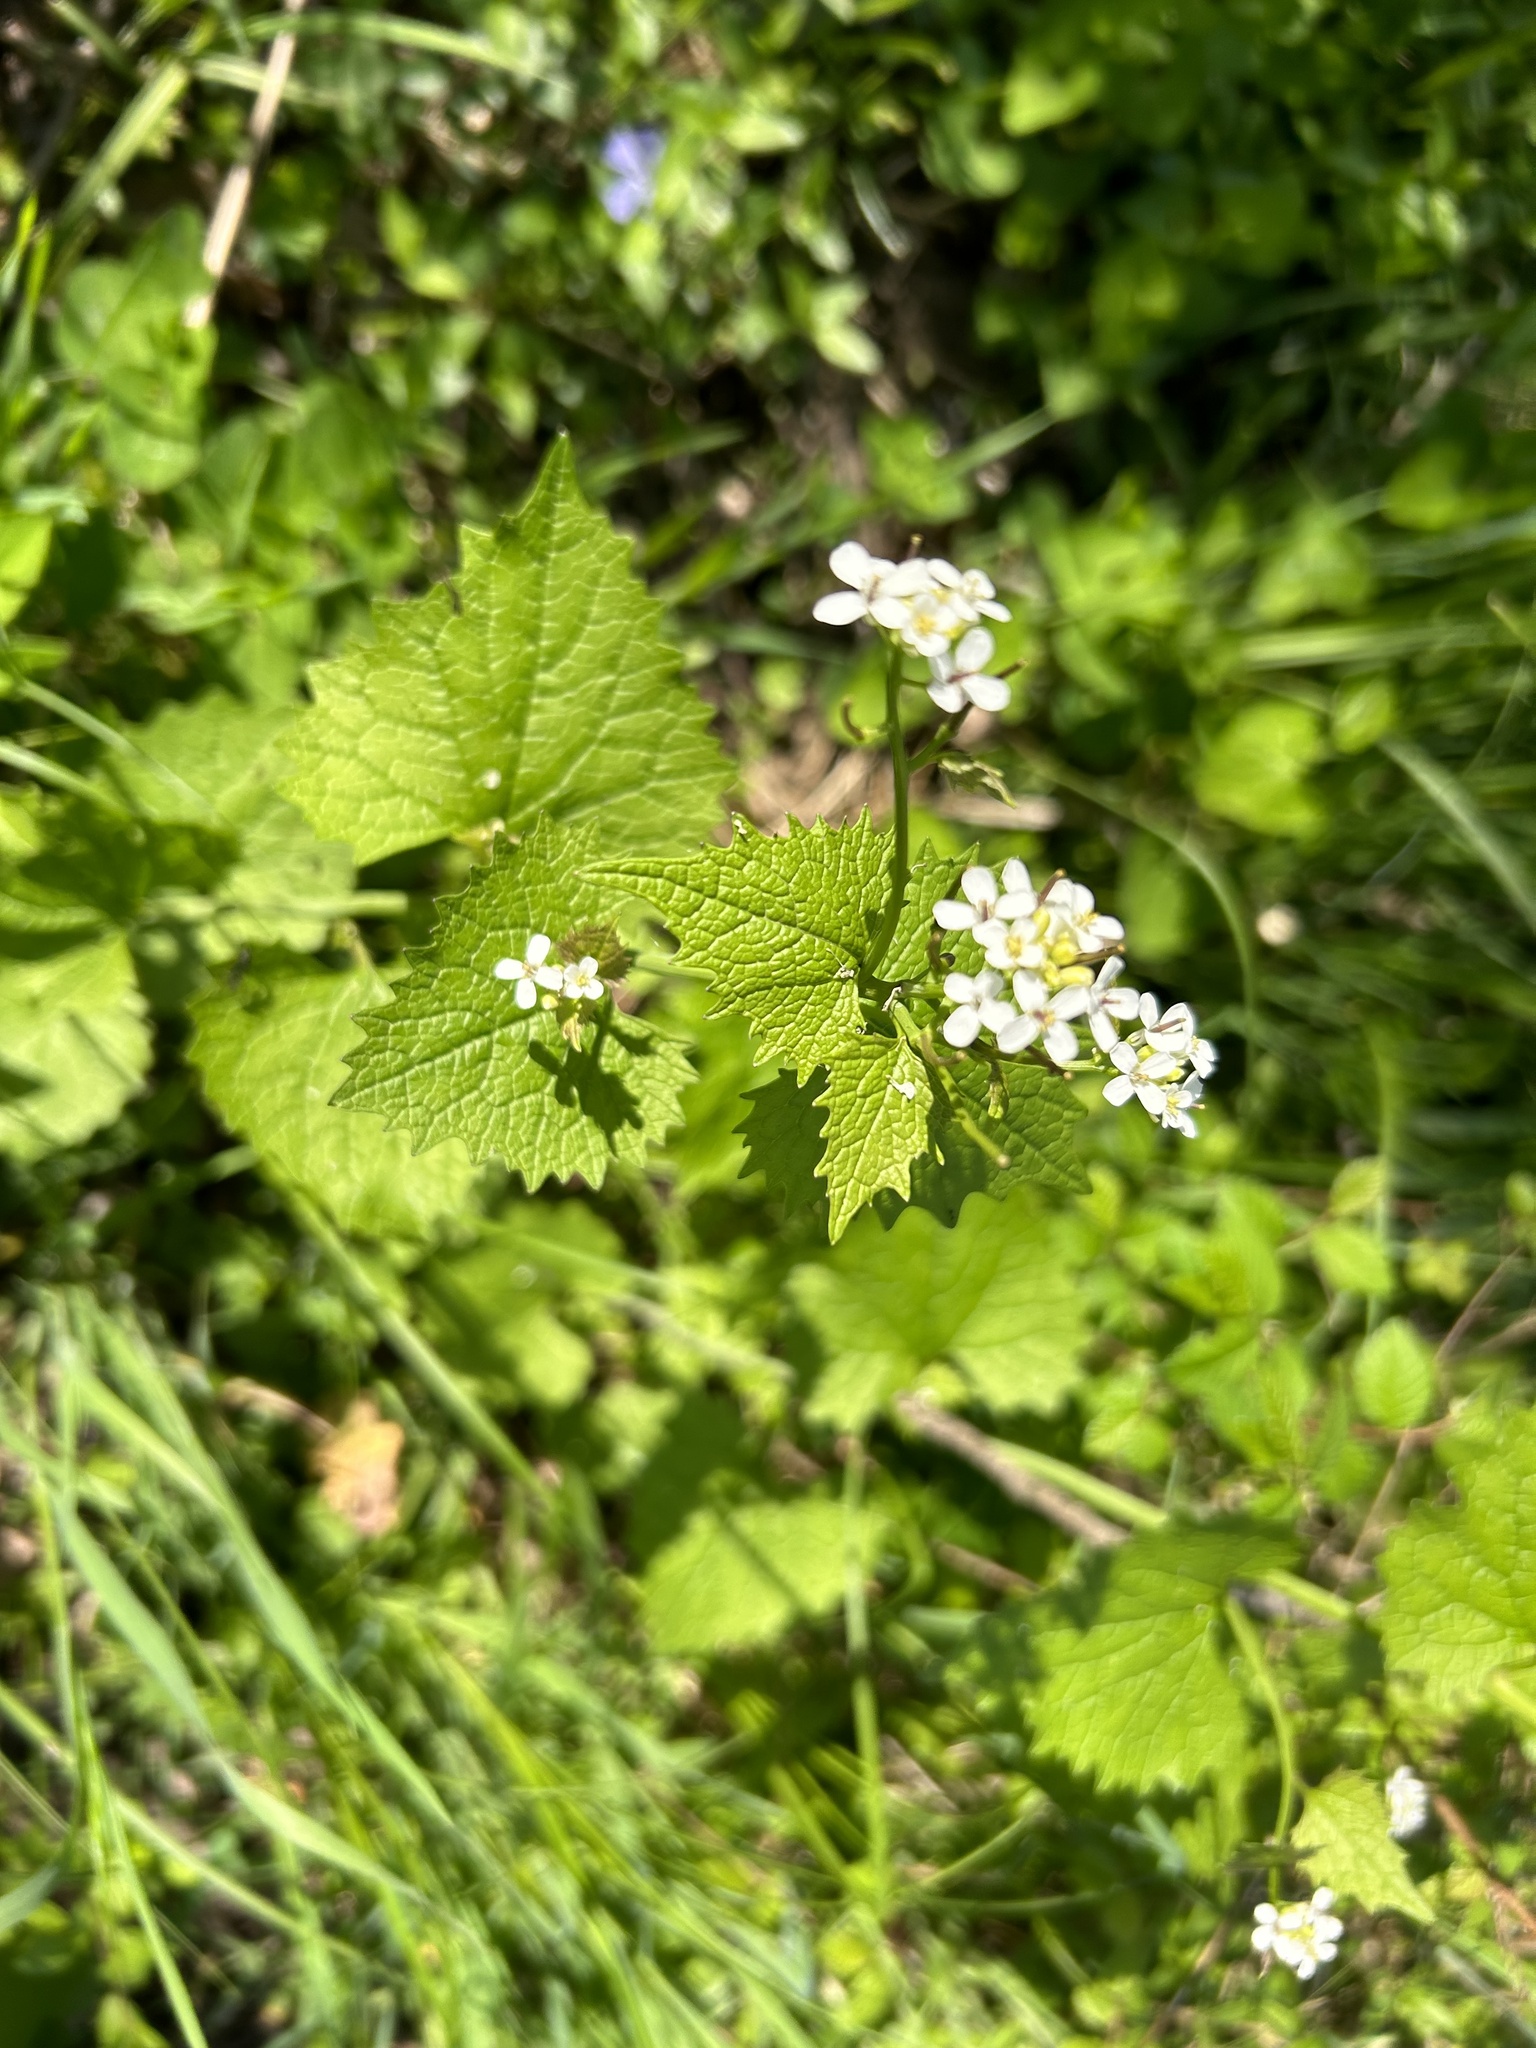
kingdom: Plantae
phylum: Tracheophyta
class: Magnoliopsida
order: Brassicales
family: Brassicaceae
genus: Alliaria
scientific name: Alliaria petiolata
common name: Garlic mustard
